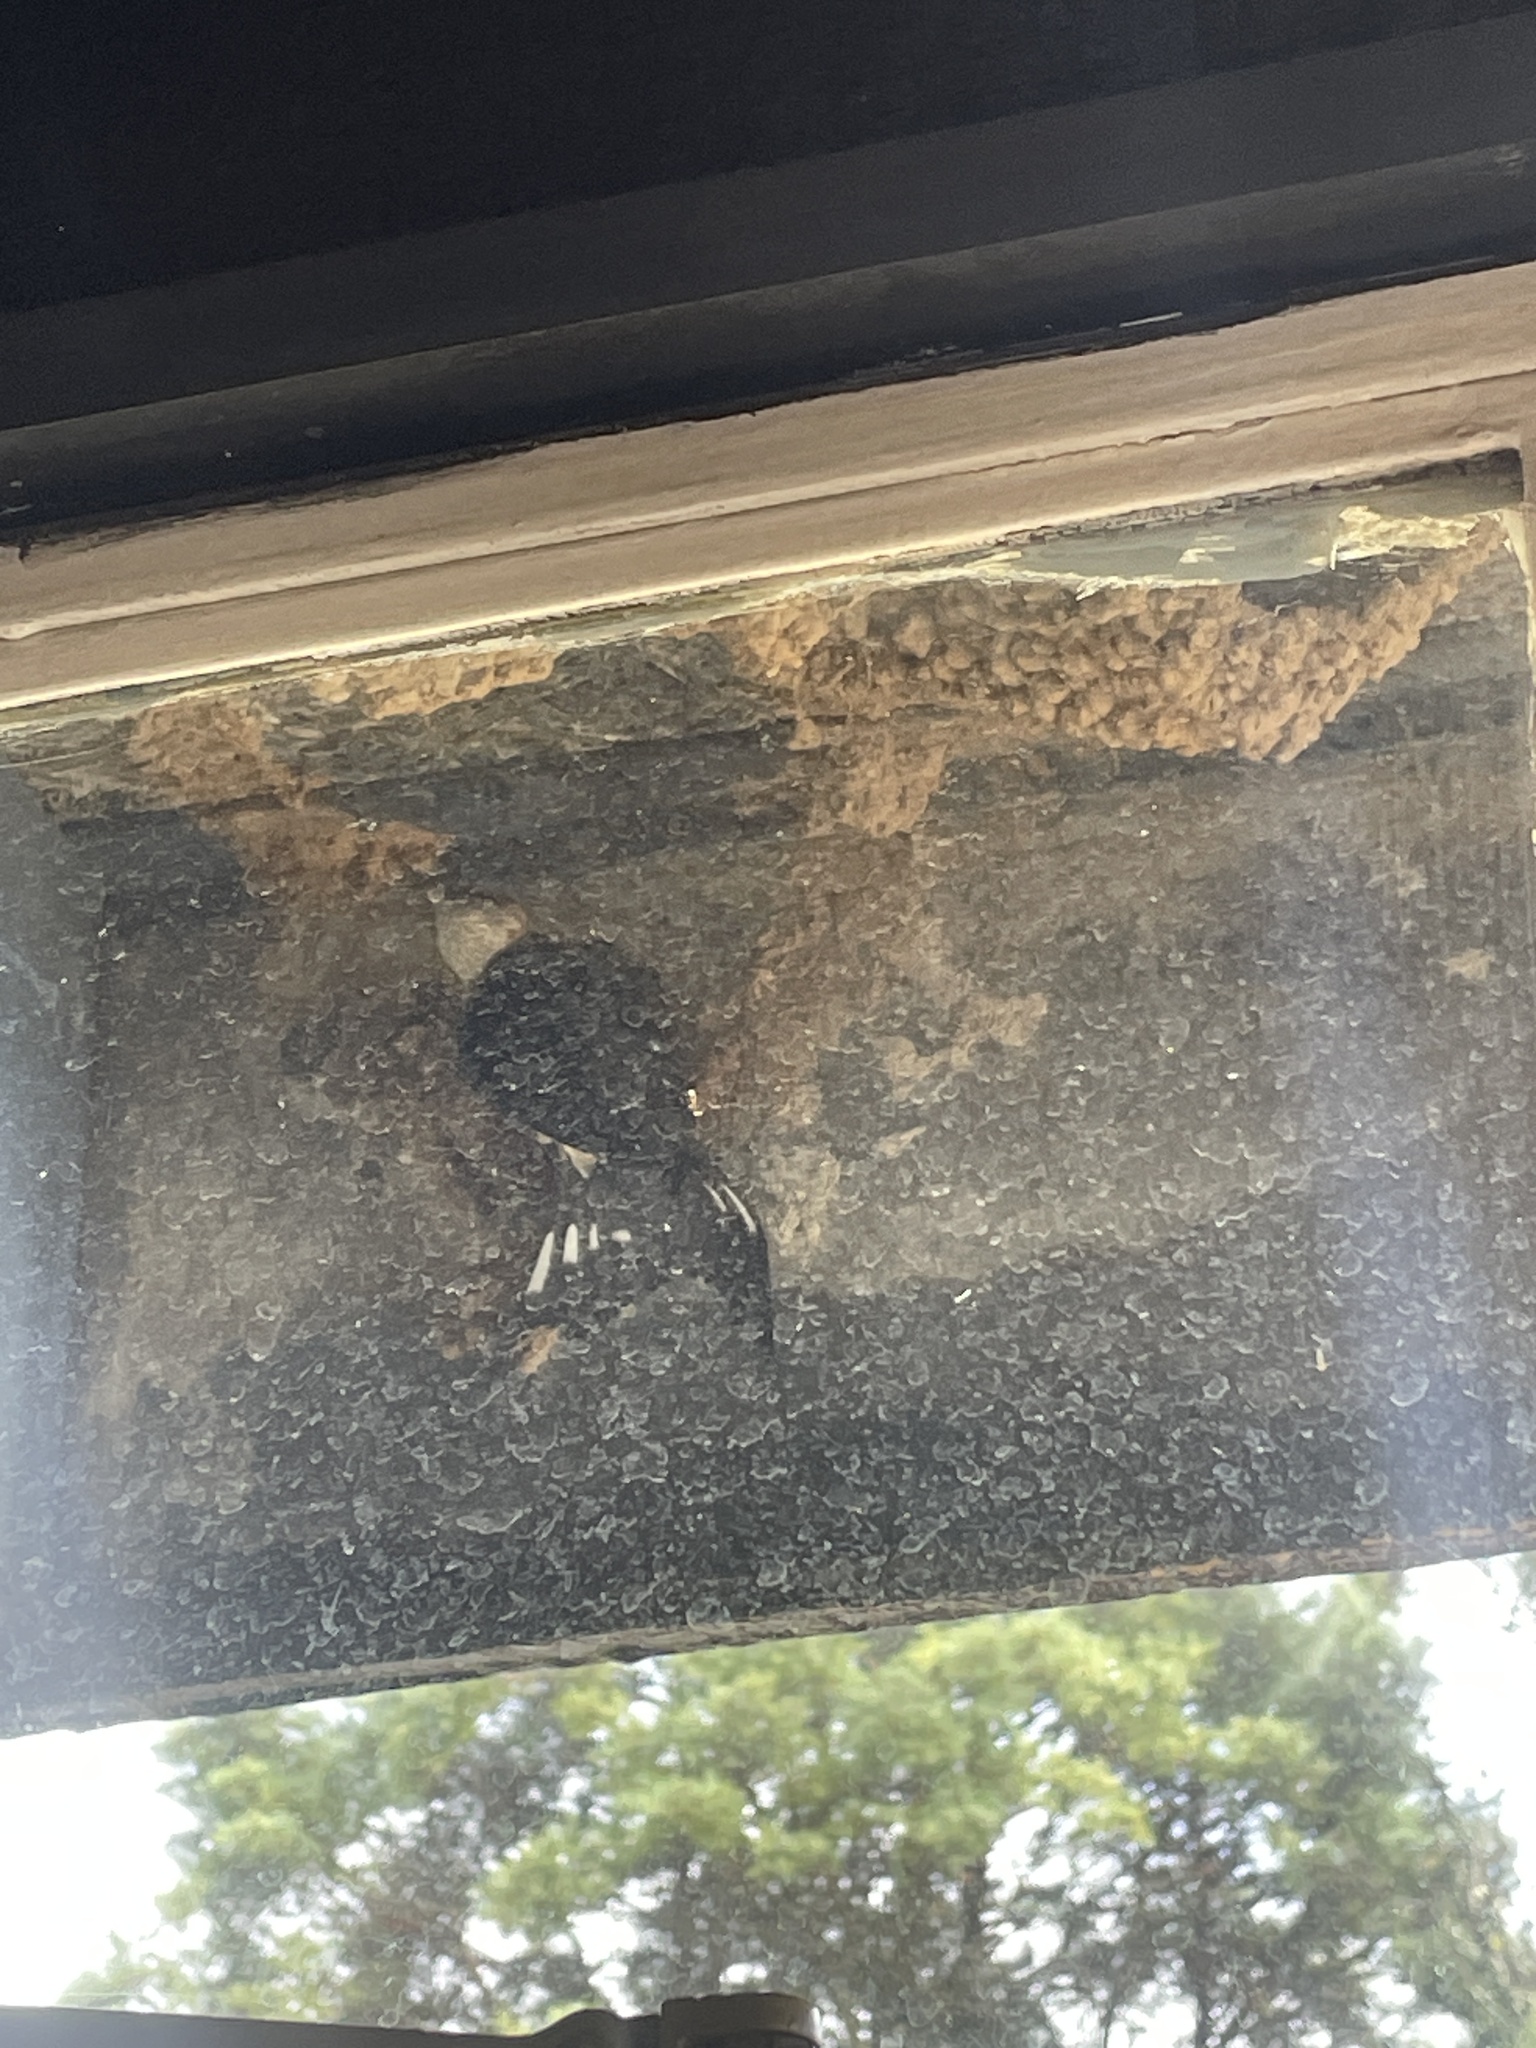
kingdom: Animalia
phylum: Chordata
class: Aves
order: Passeriformes
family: Hirundinidae
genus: Cecropis
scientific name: Cecropis cucullata
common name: Greater striped-swallow
